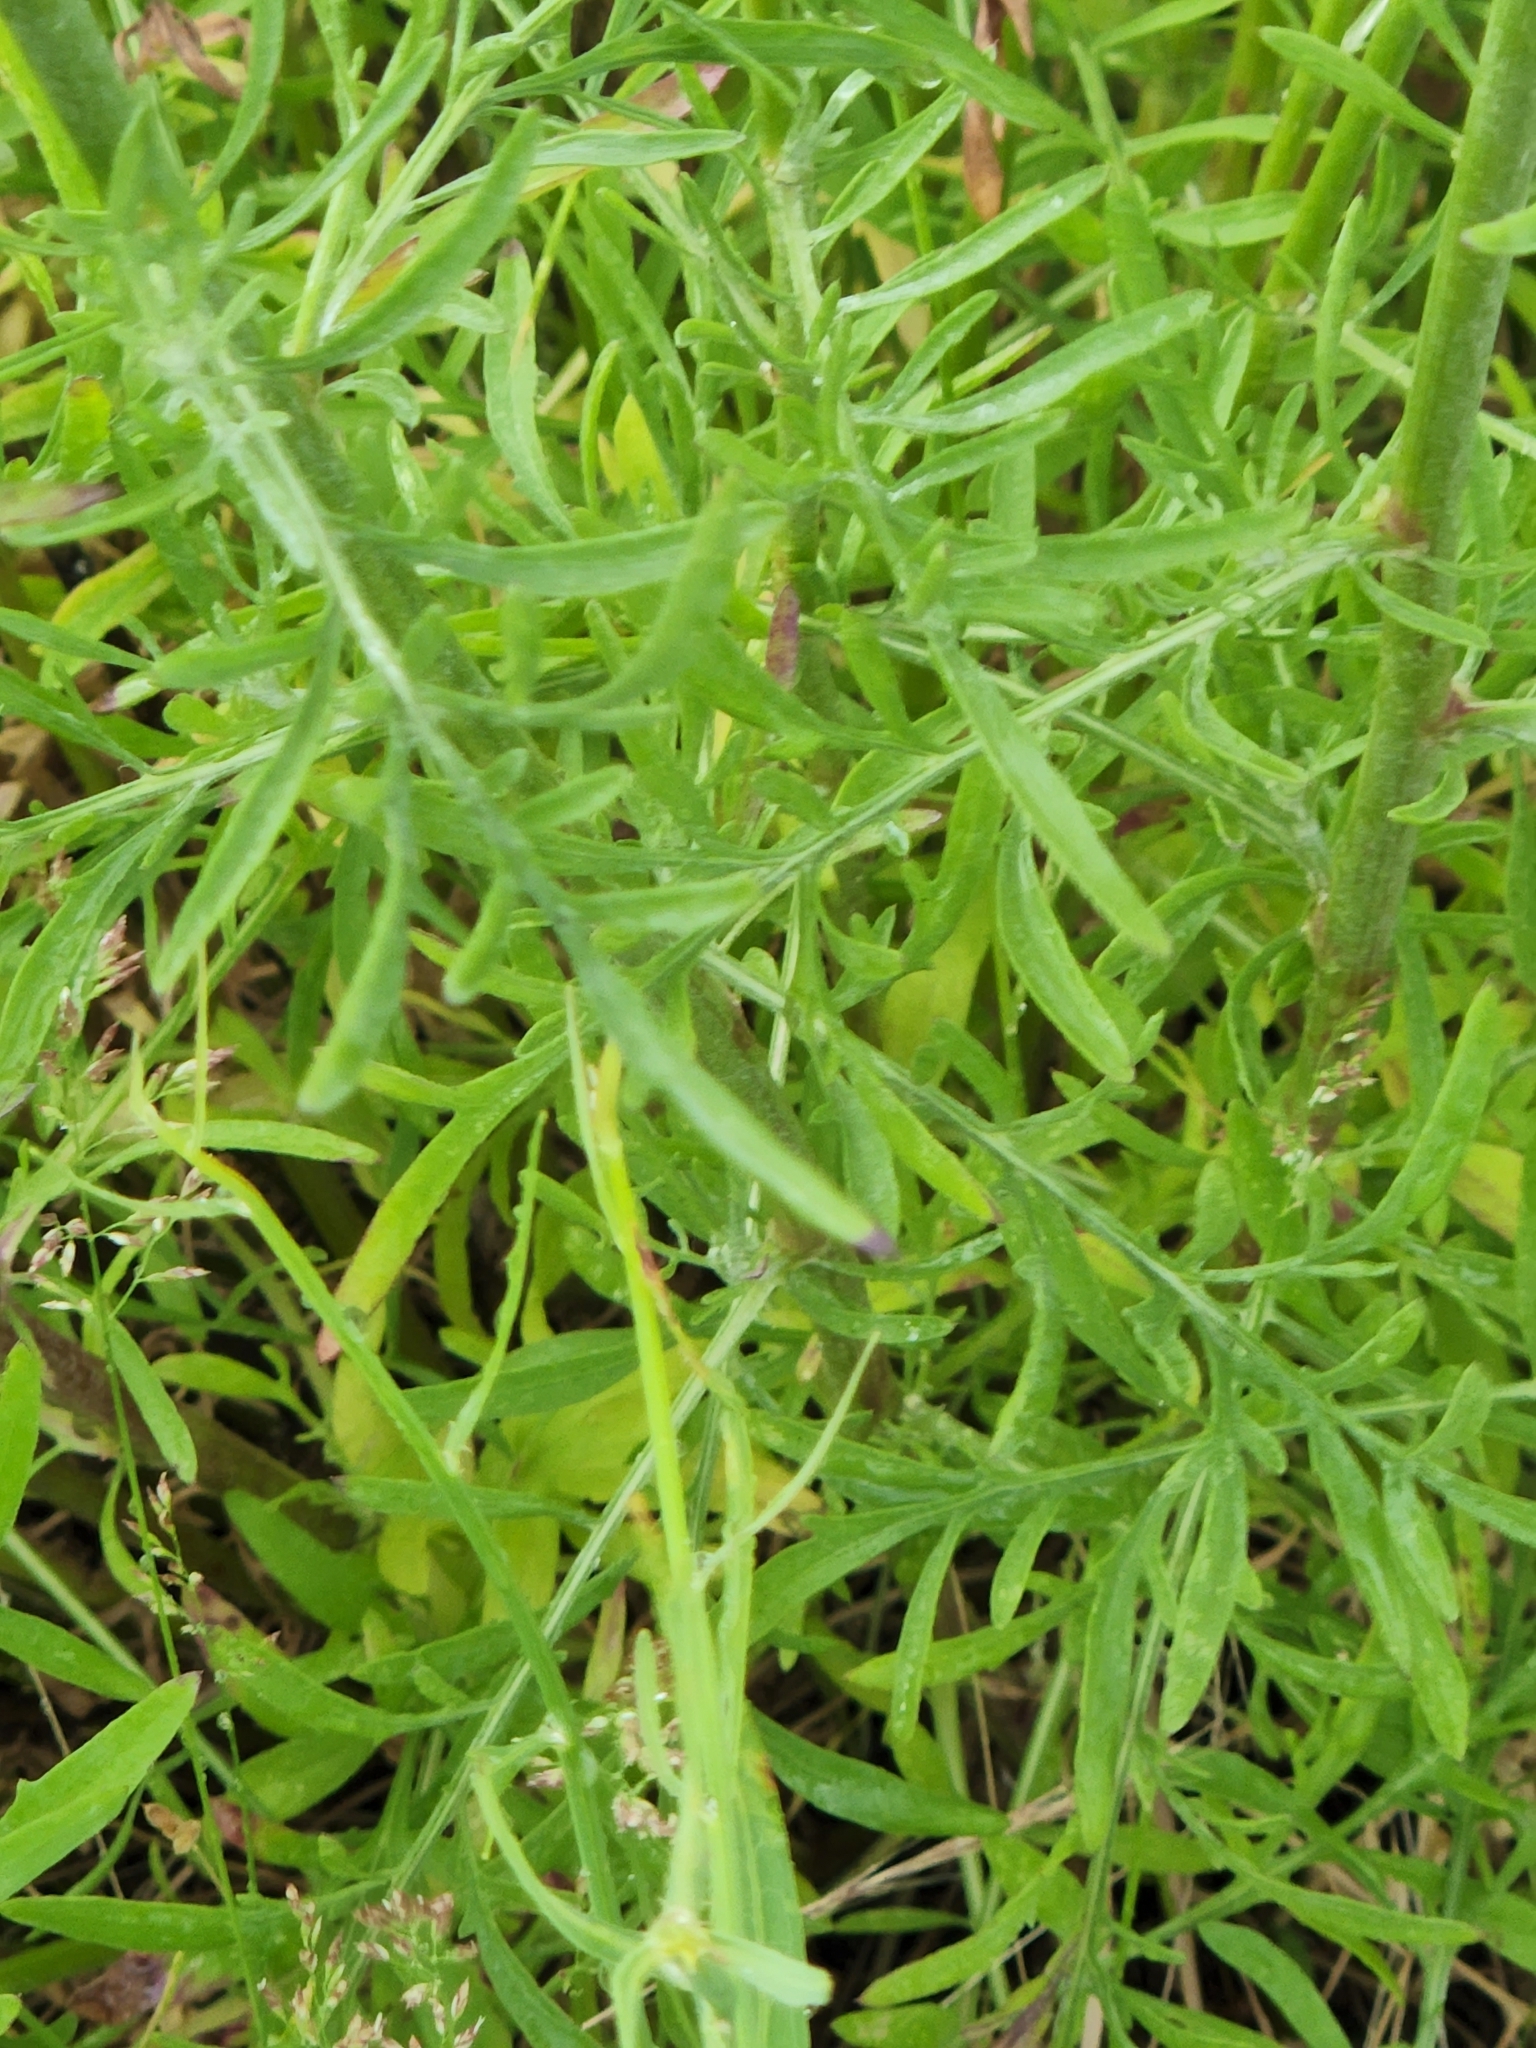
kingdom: Plantae
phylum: Tracheophyta
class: Magnoliopsida
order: Asterales
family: Asteraceae
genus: Centaurea
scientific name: Centaurea stoebe
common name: Spotted knapweed
